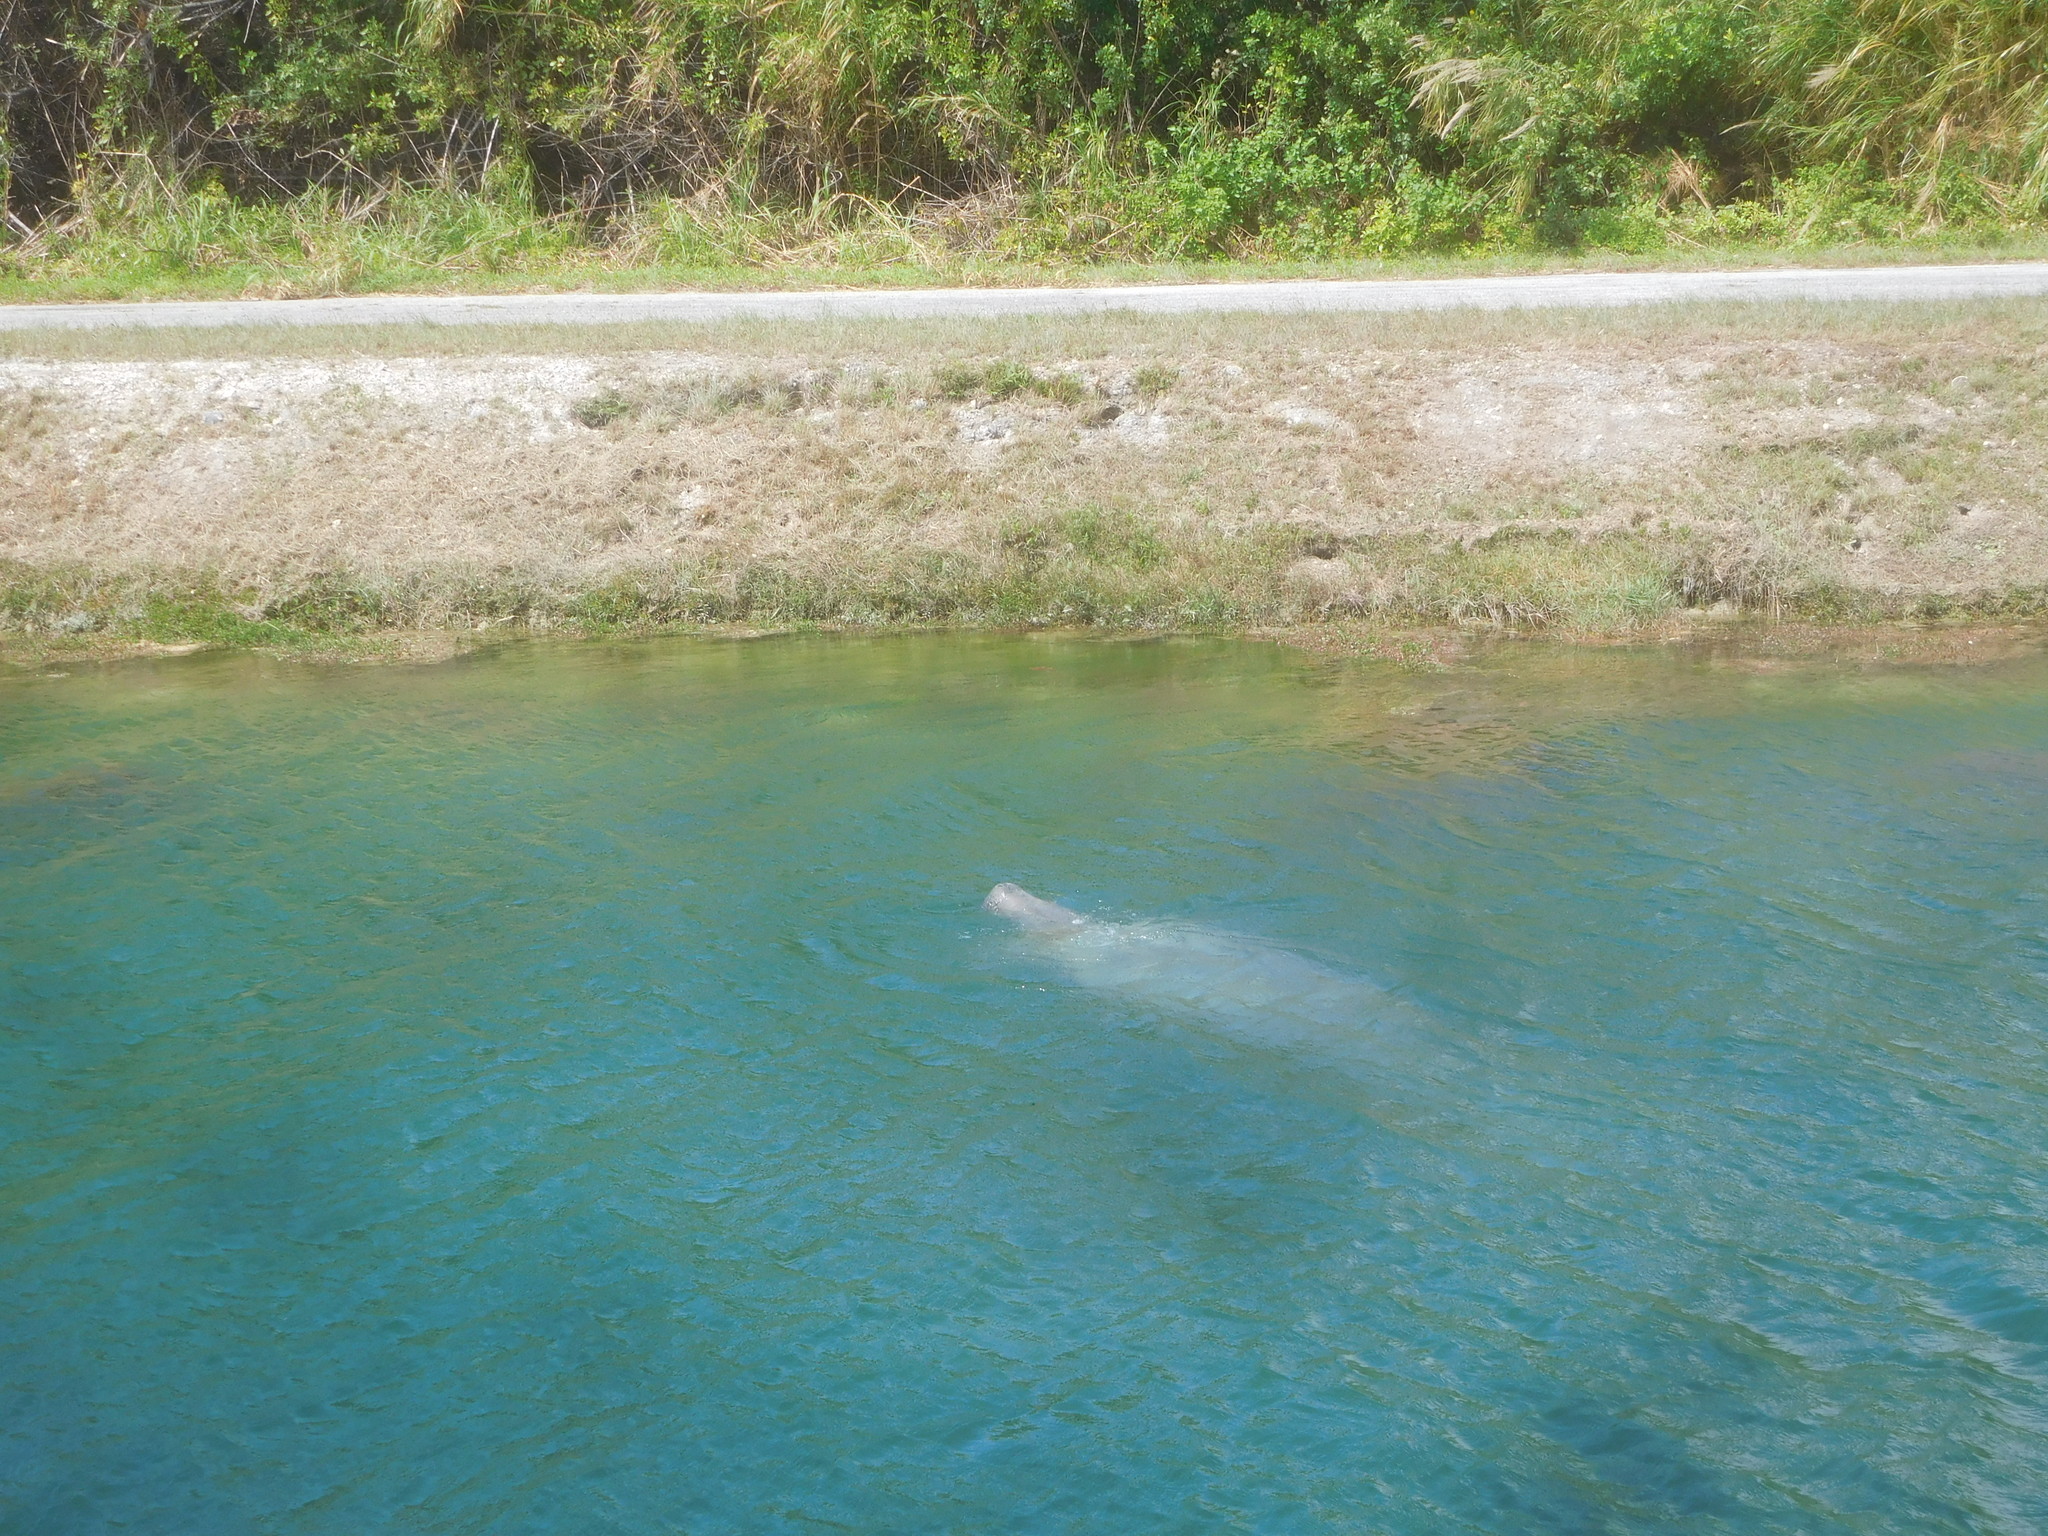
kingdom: Animalia
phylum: Chordata
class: Mammalia
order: Sirenia
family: Trichechidae
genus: Trichechus
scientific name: Trichechus manatus
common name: West indian manatee
